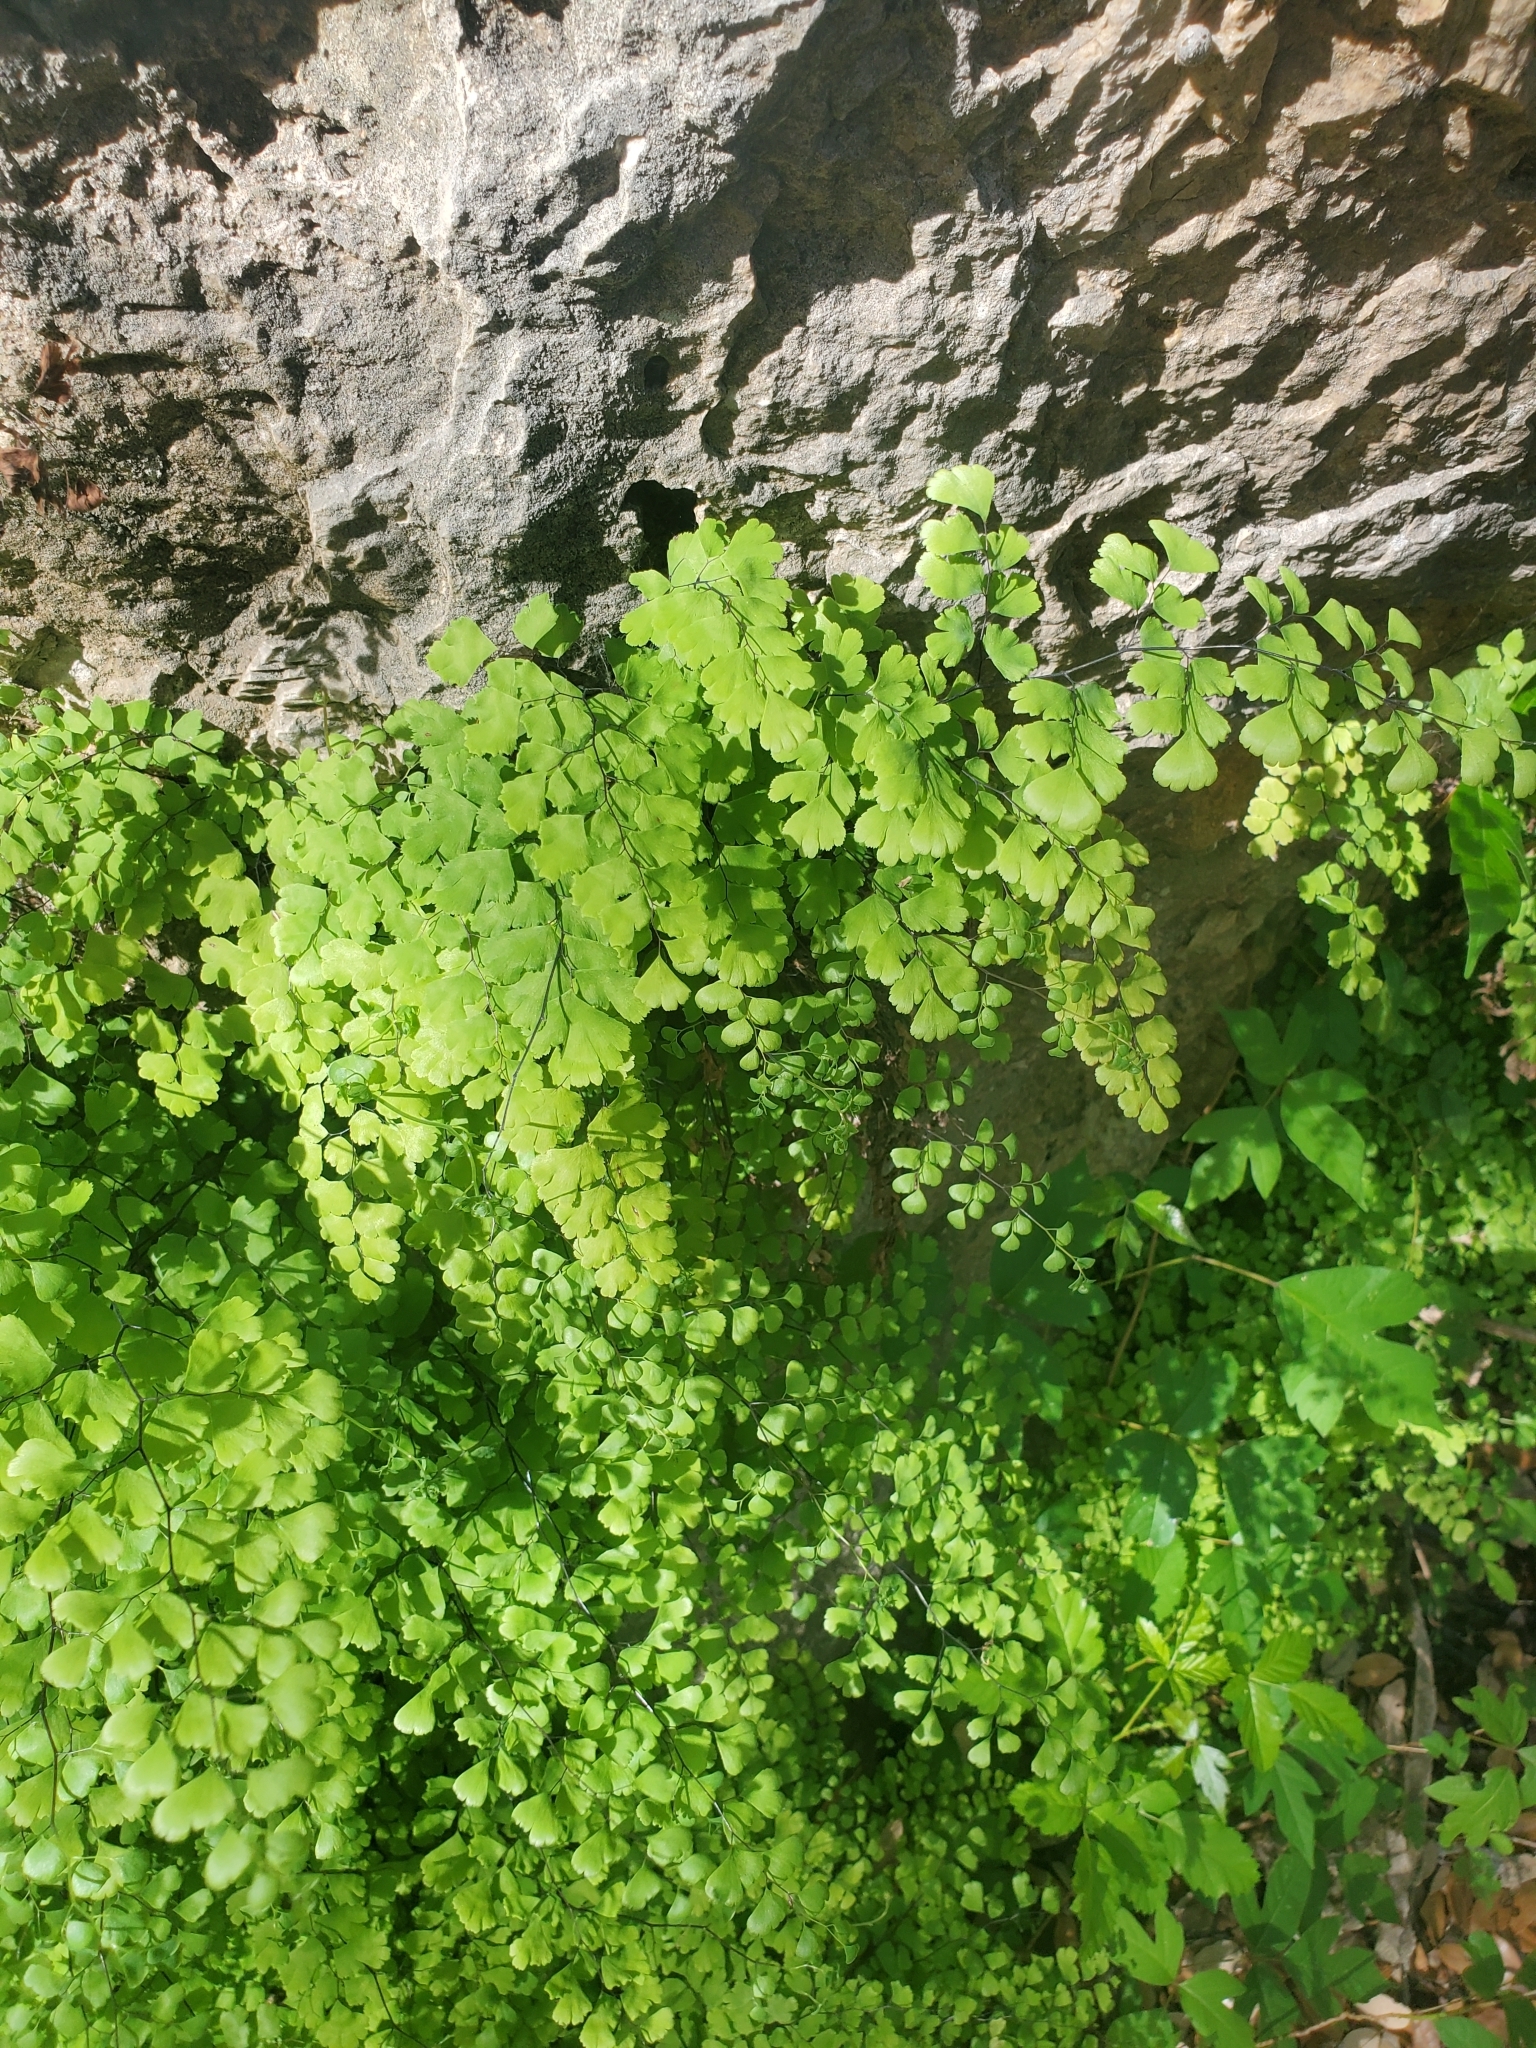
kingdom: Plantae
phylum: Tracheophyta
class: Polypodiopsida
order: Polypodiales
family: Pteridaceae
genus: Adiantum
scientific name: Adiantum capillus-veneris
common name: Maidenhair fern
